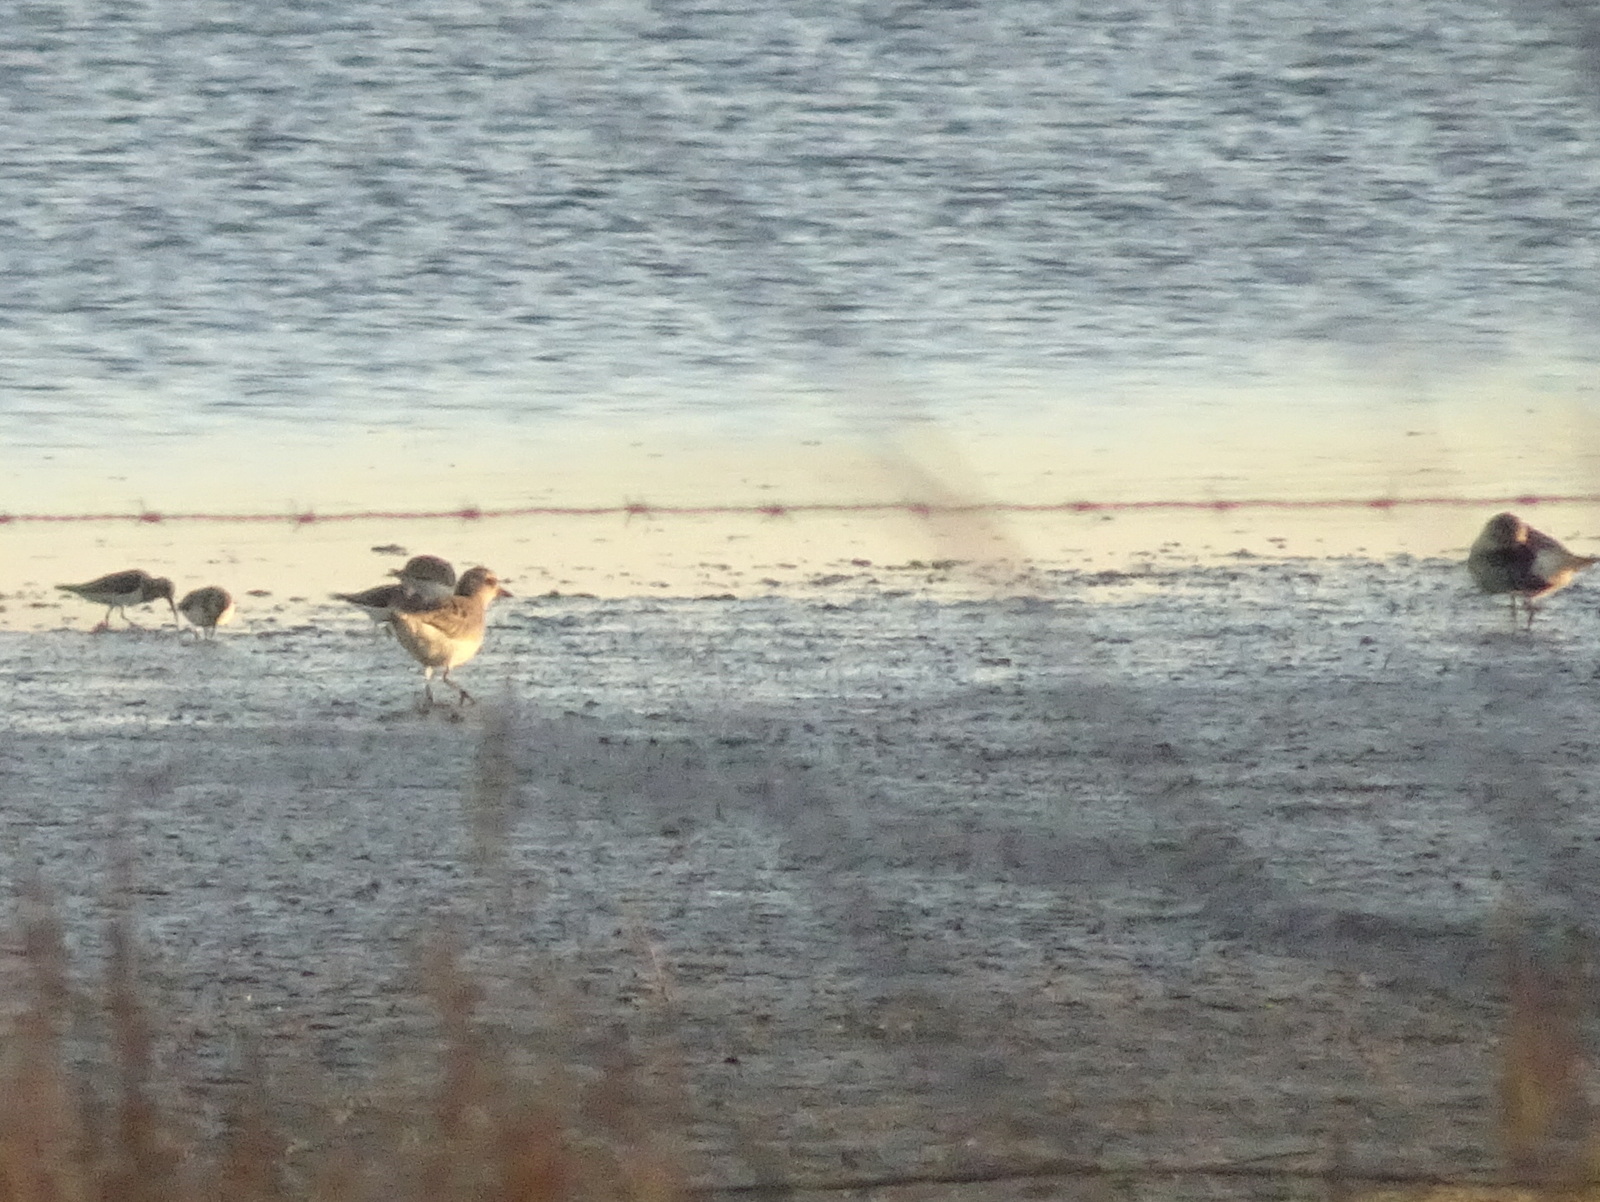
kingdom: Animalia
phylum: Chordata
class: Aves
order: Charadriiformes
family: Charadriidae
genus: Pluvialis
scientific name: Pluvialis squatarola
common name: Grey plover
